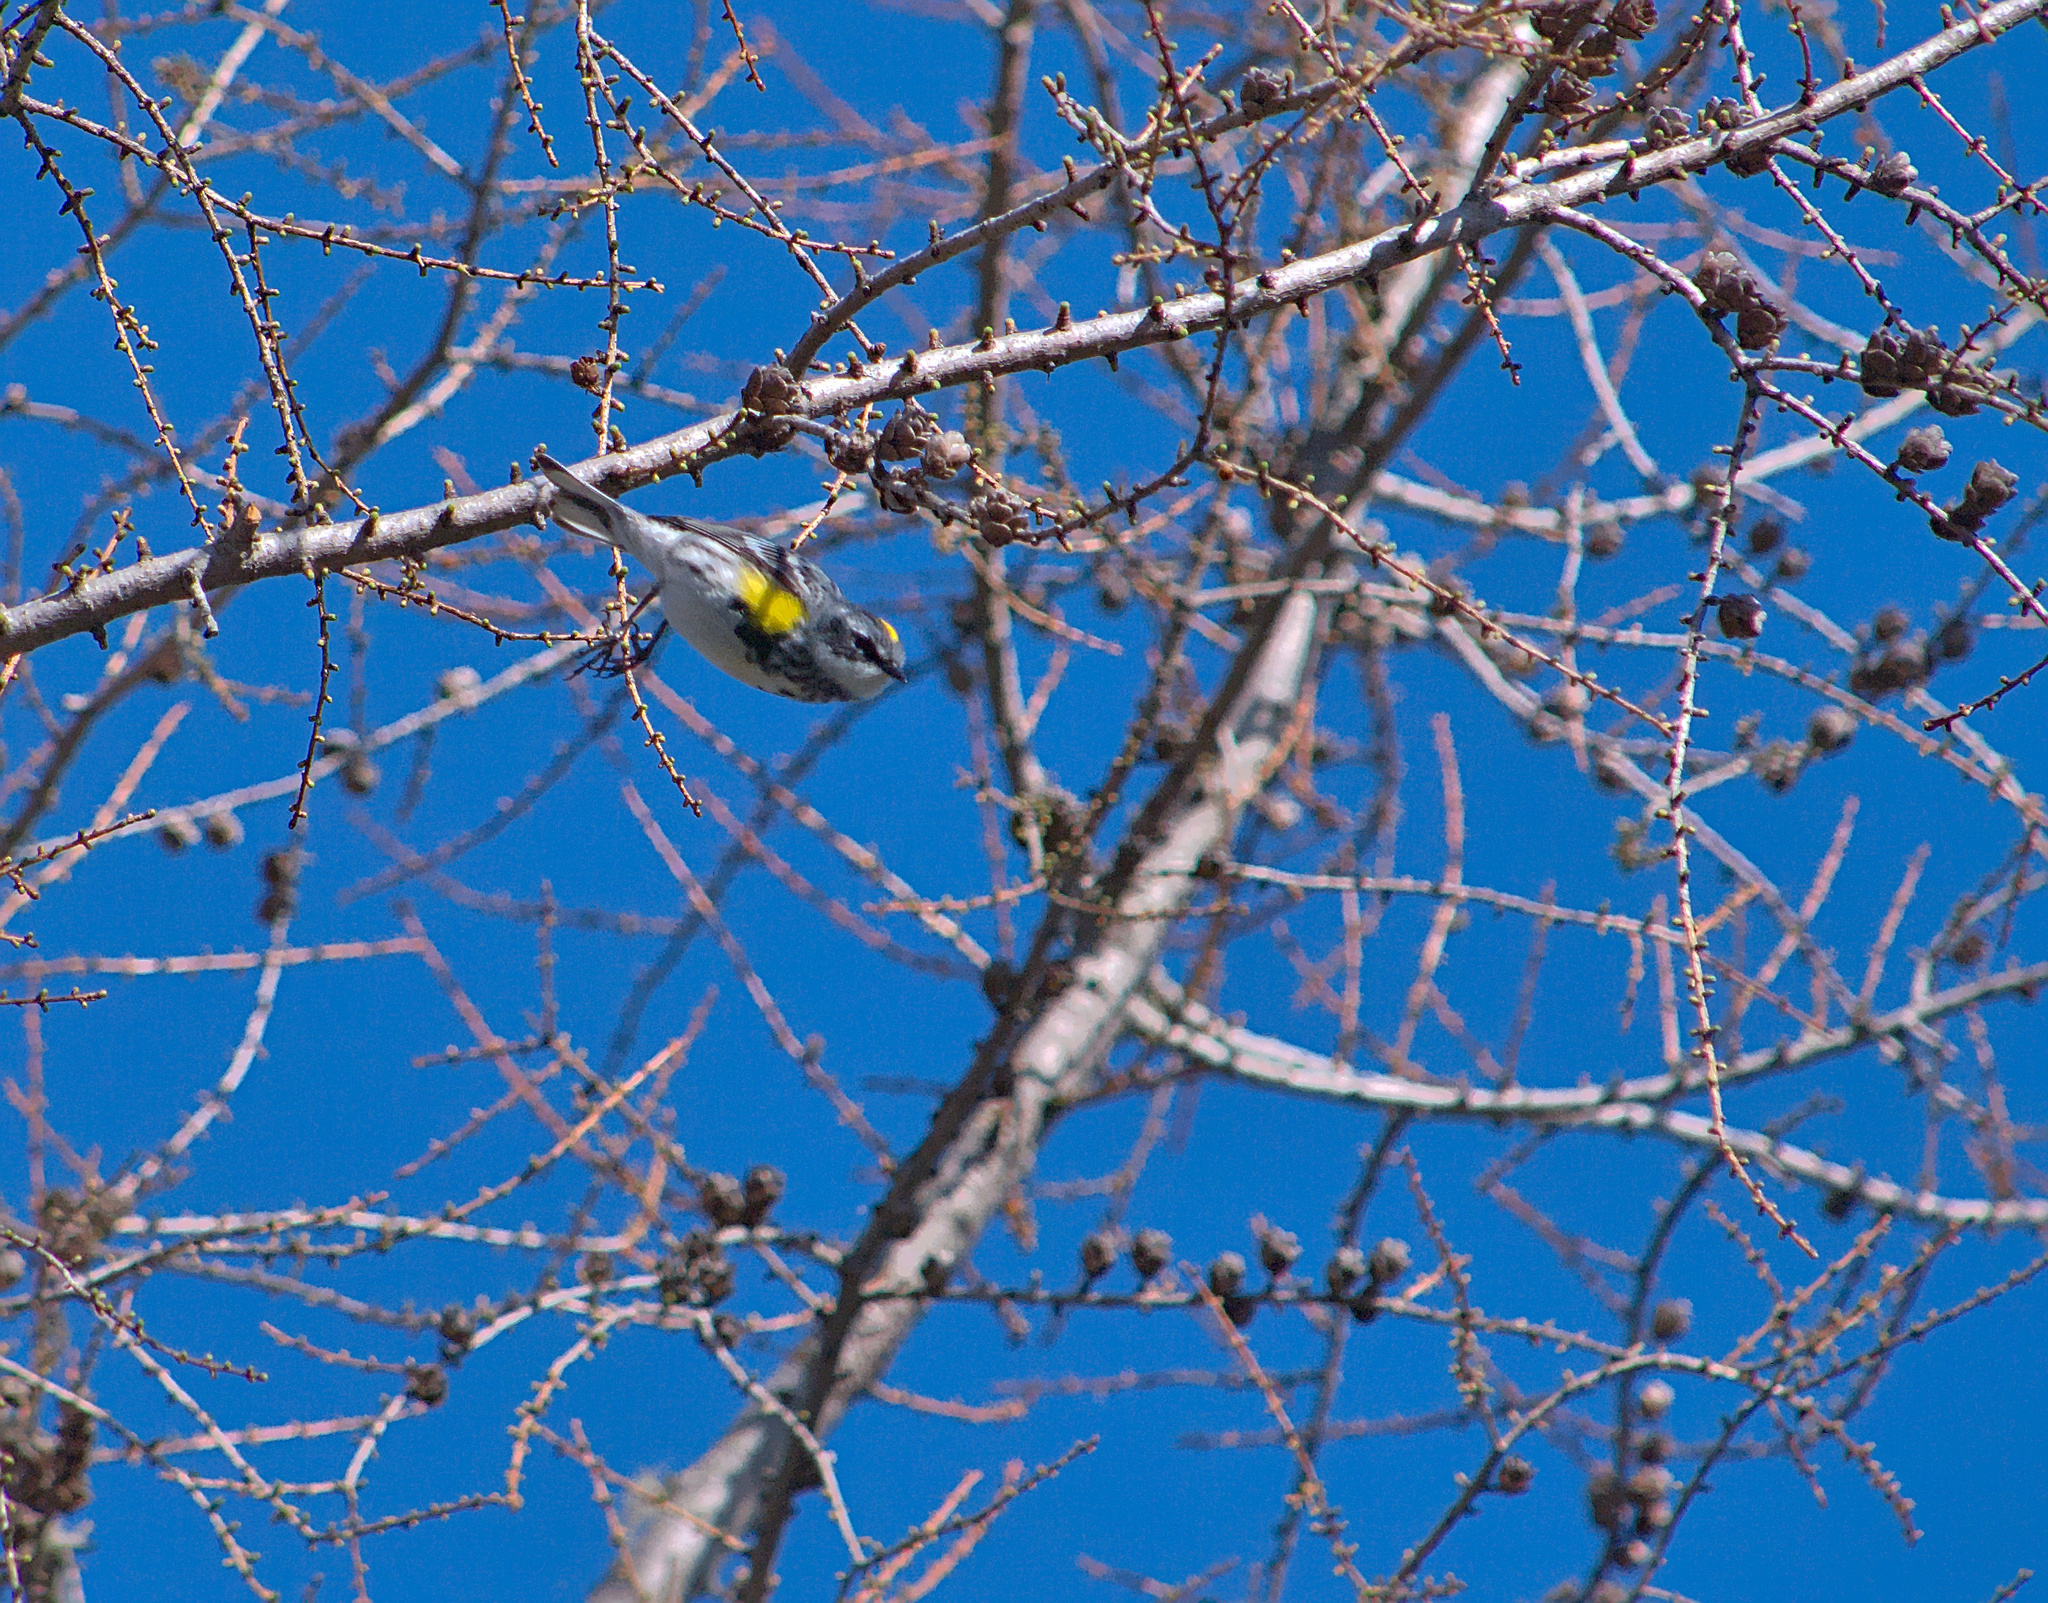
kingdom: Animalia
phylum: Chordata
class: Aves
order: Passeriformes
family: Parulidae
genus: Setophaga
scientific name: Setophaga coronata
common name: Myrtle warbler
